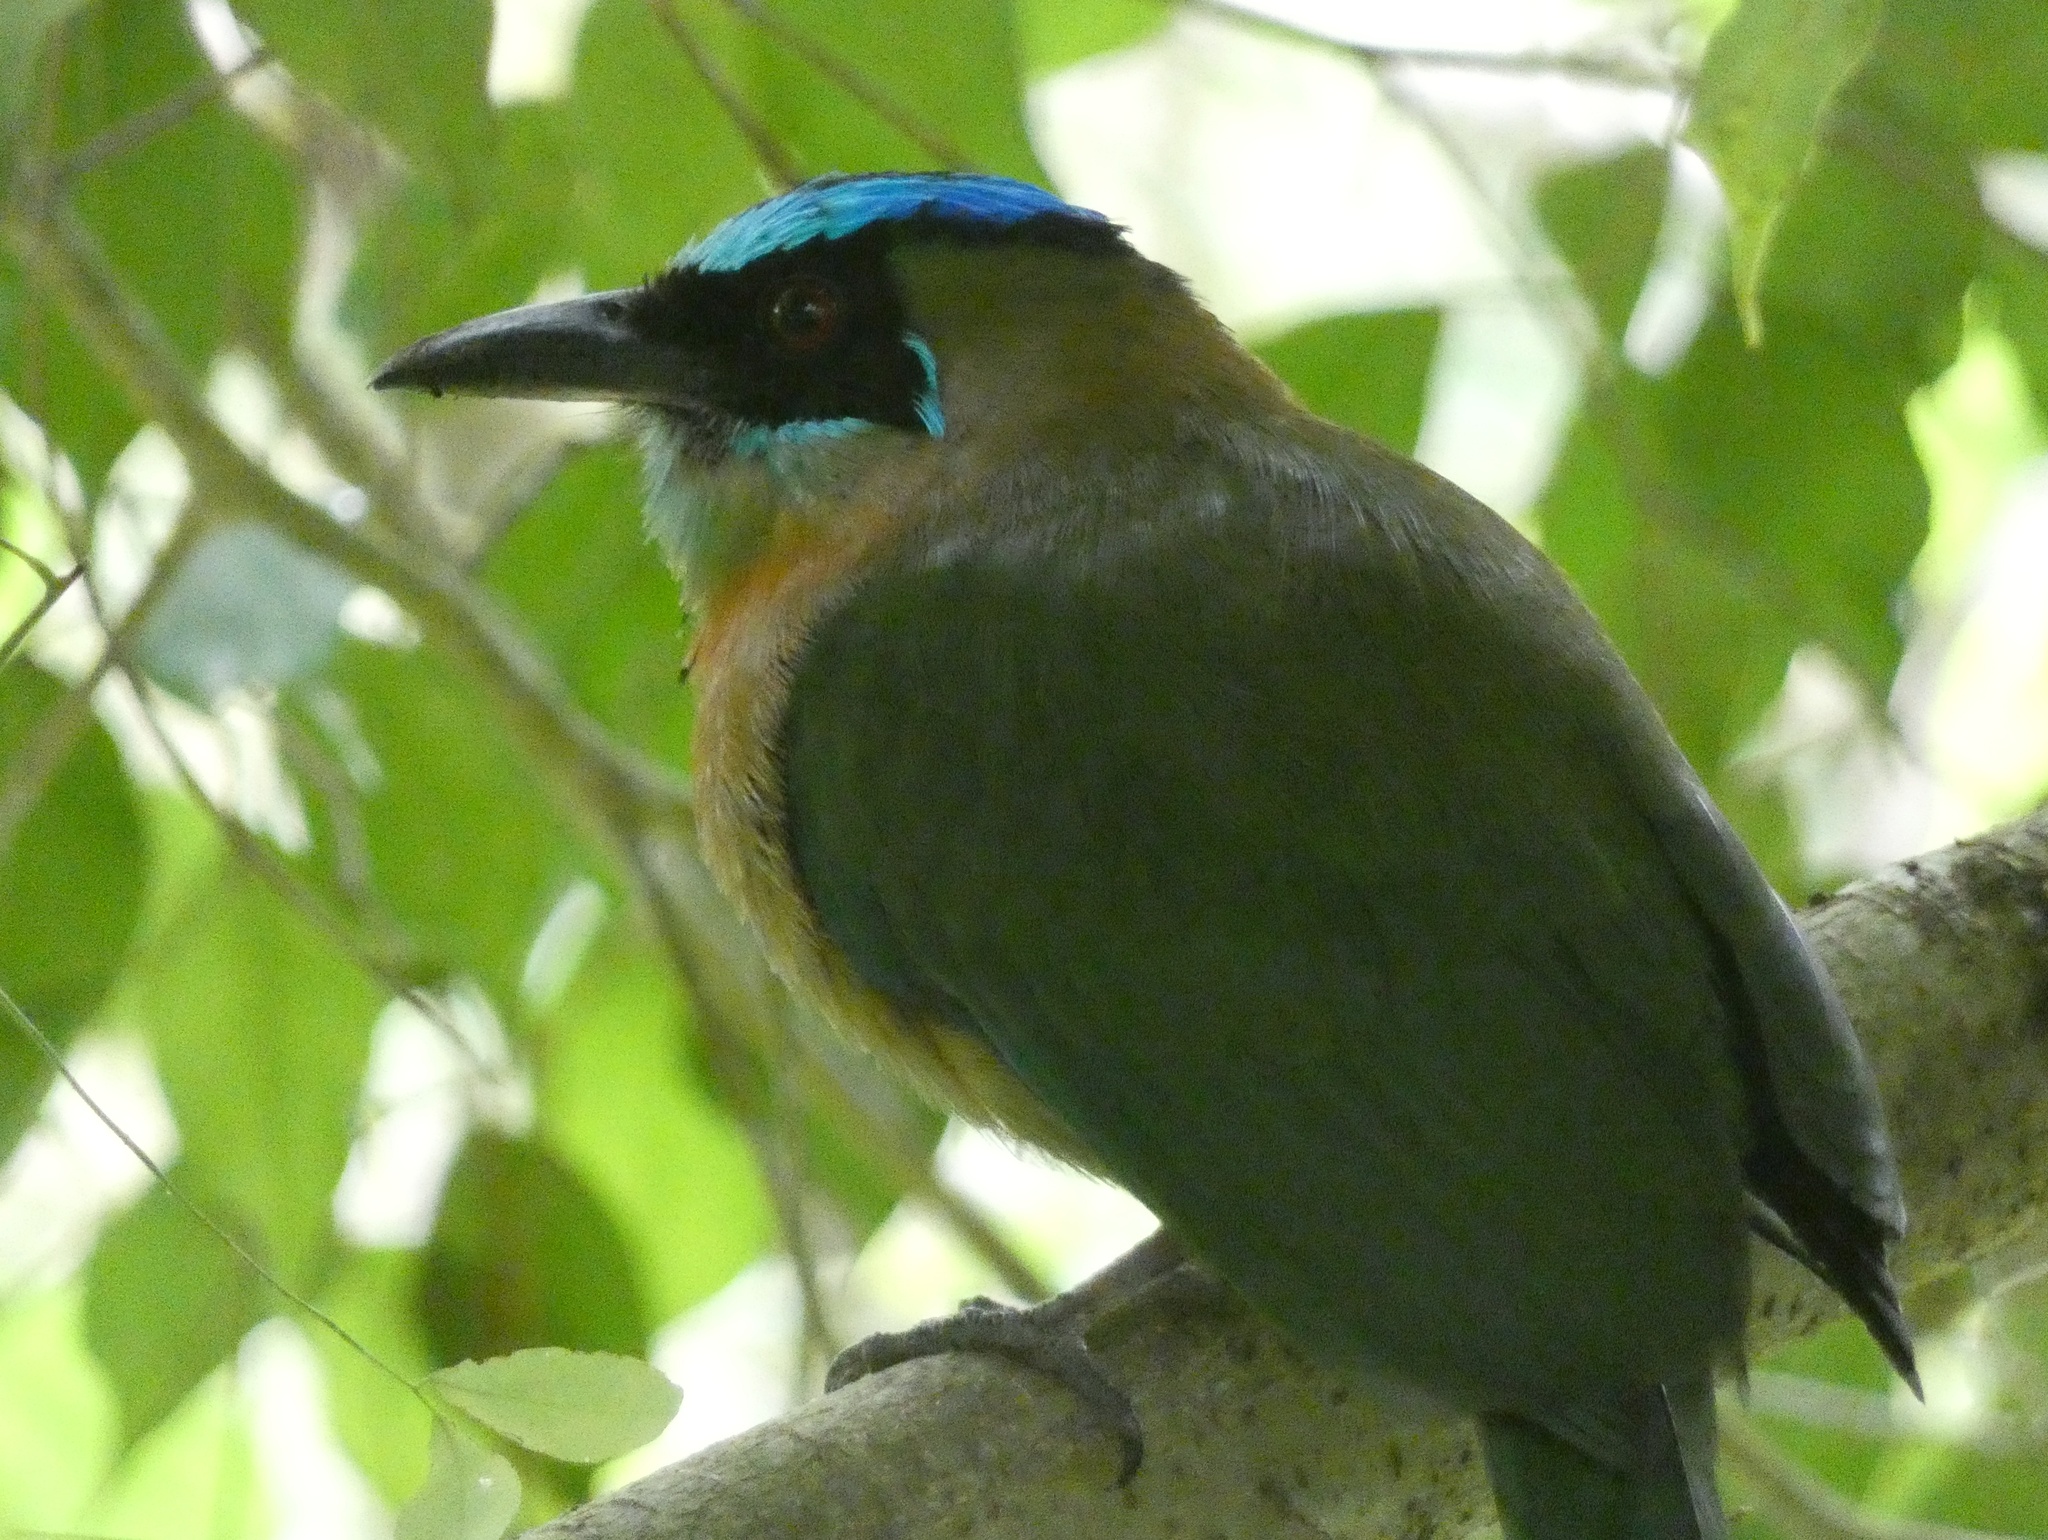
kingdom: Animalia
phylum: Chordata
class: Aves
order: Coraciiformes
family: Momotidae
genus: Momotus
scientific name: Momotus lessonii
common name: Lesson's motmot
